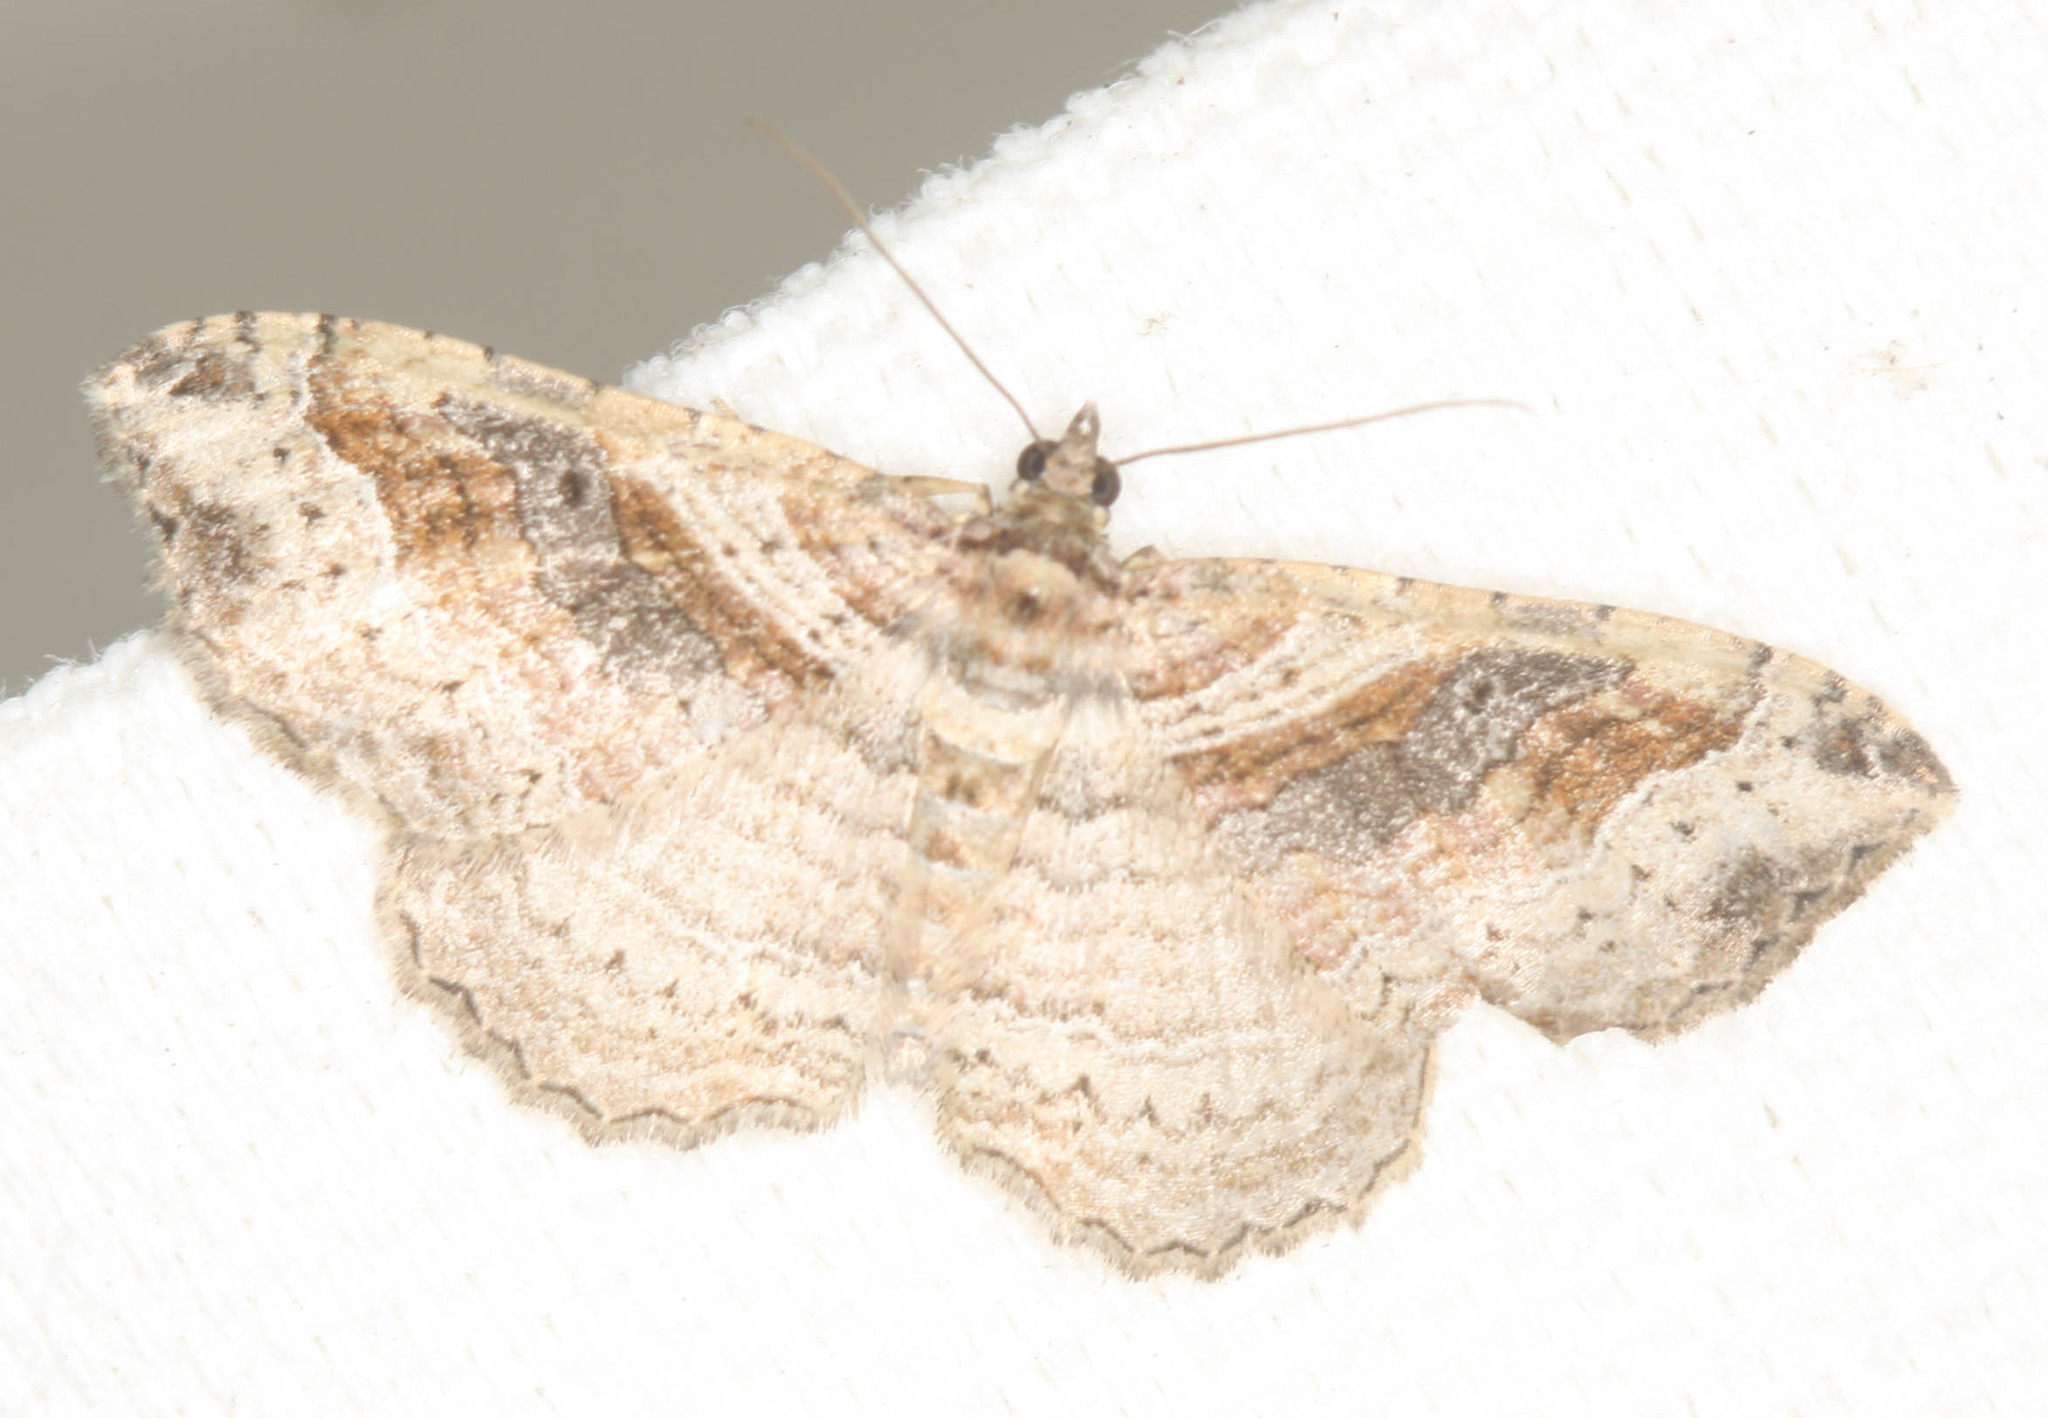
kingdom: Animalia
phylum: Arthropoda
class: Insecta
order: Lepidoptera
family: Geometridae
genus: Costaconvexa
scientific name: Costaconvexa centrostrigaria
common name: Bent-line carpet
